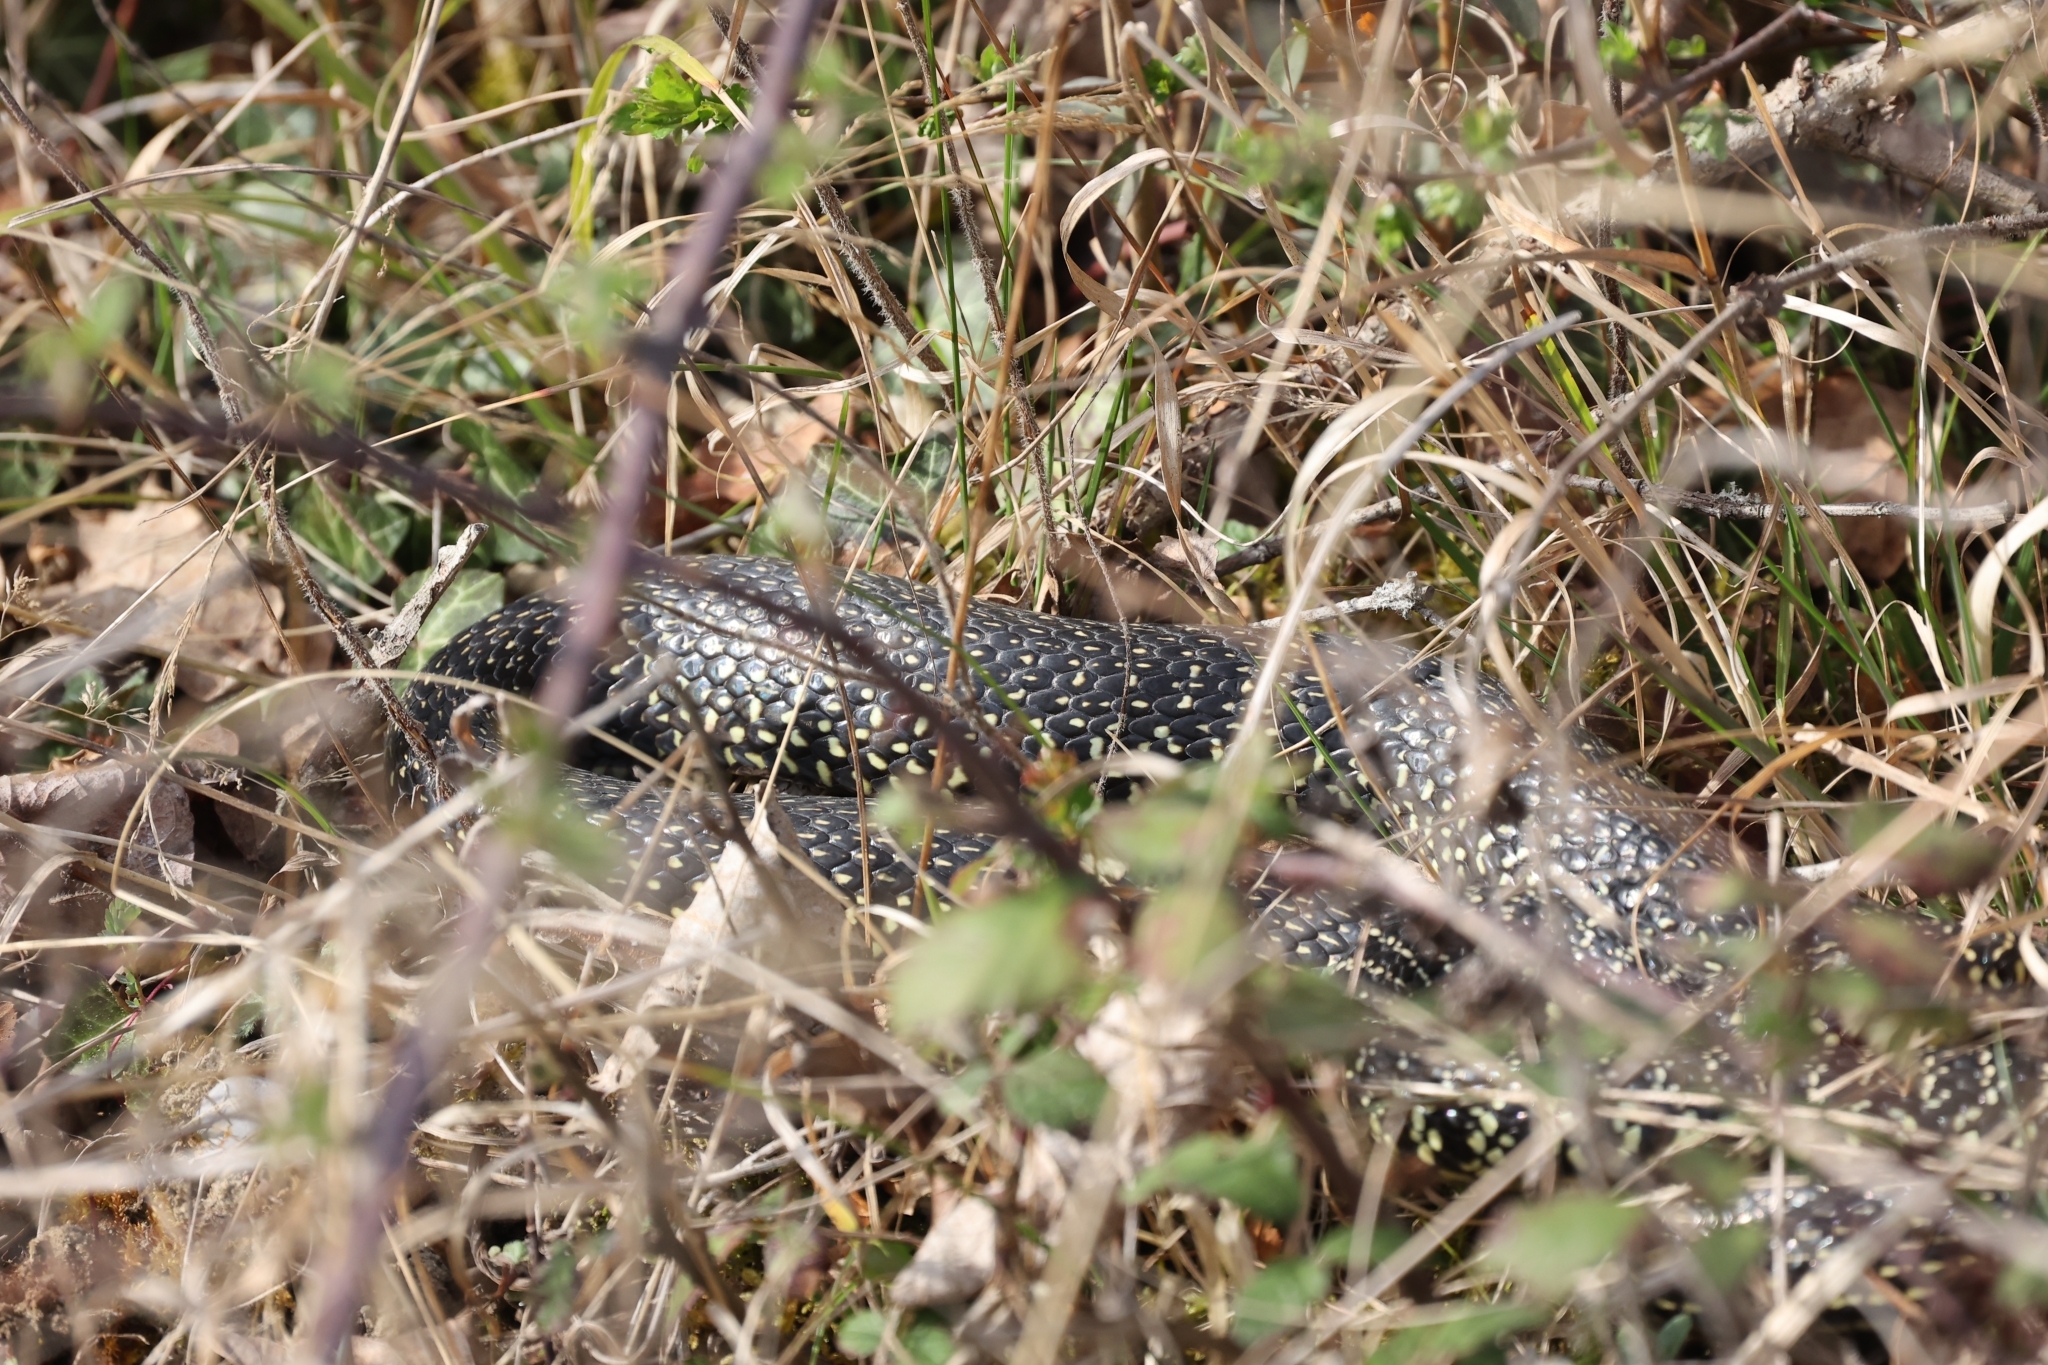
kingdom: Animalia
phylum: Chordata
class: Squamata
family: Colubridae
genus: Hierophis
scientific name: Hierophis viridiflavus
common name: Green whip snake
